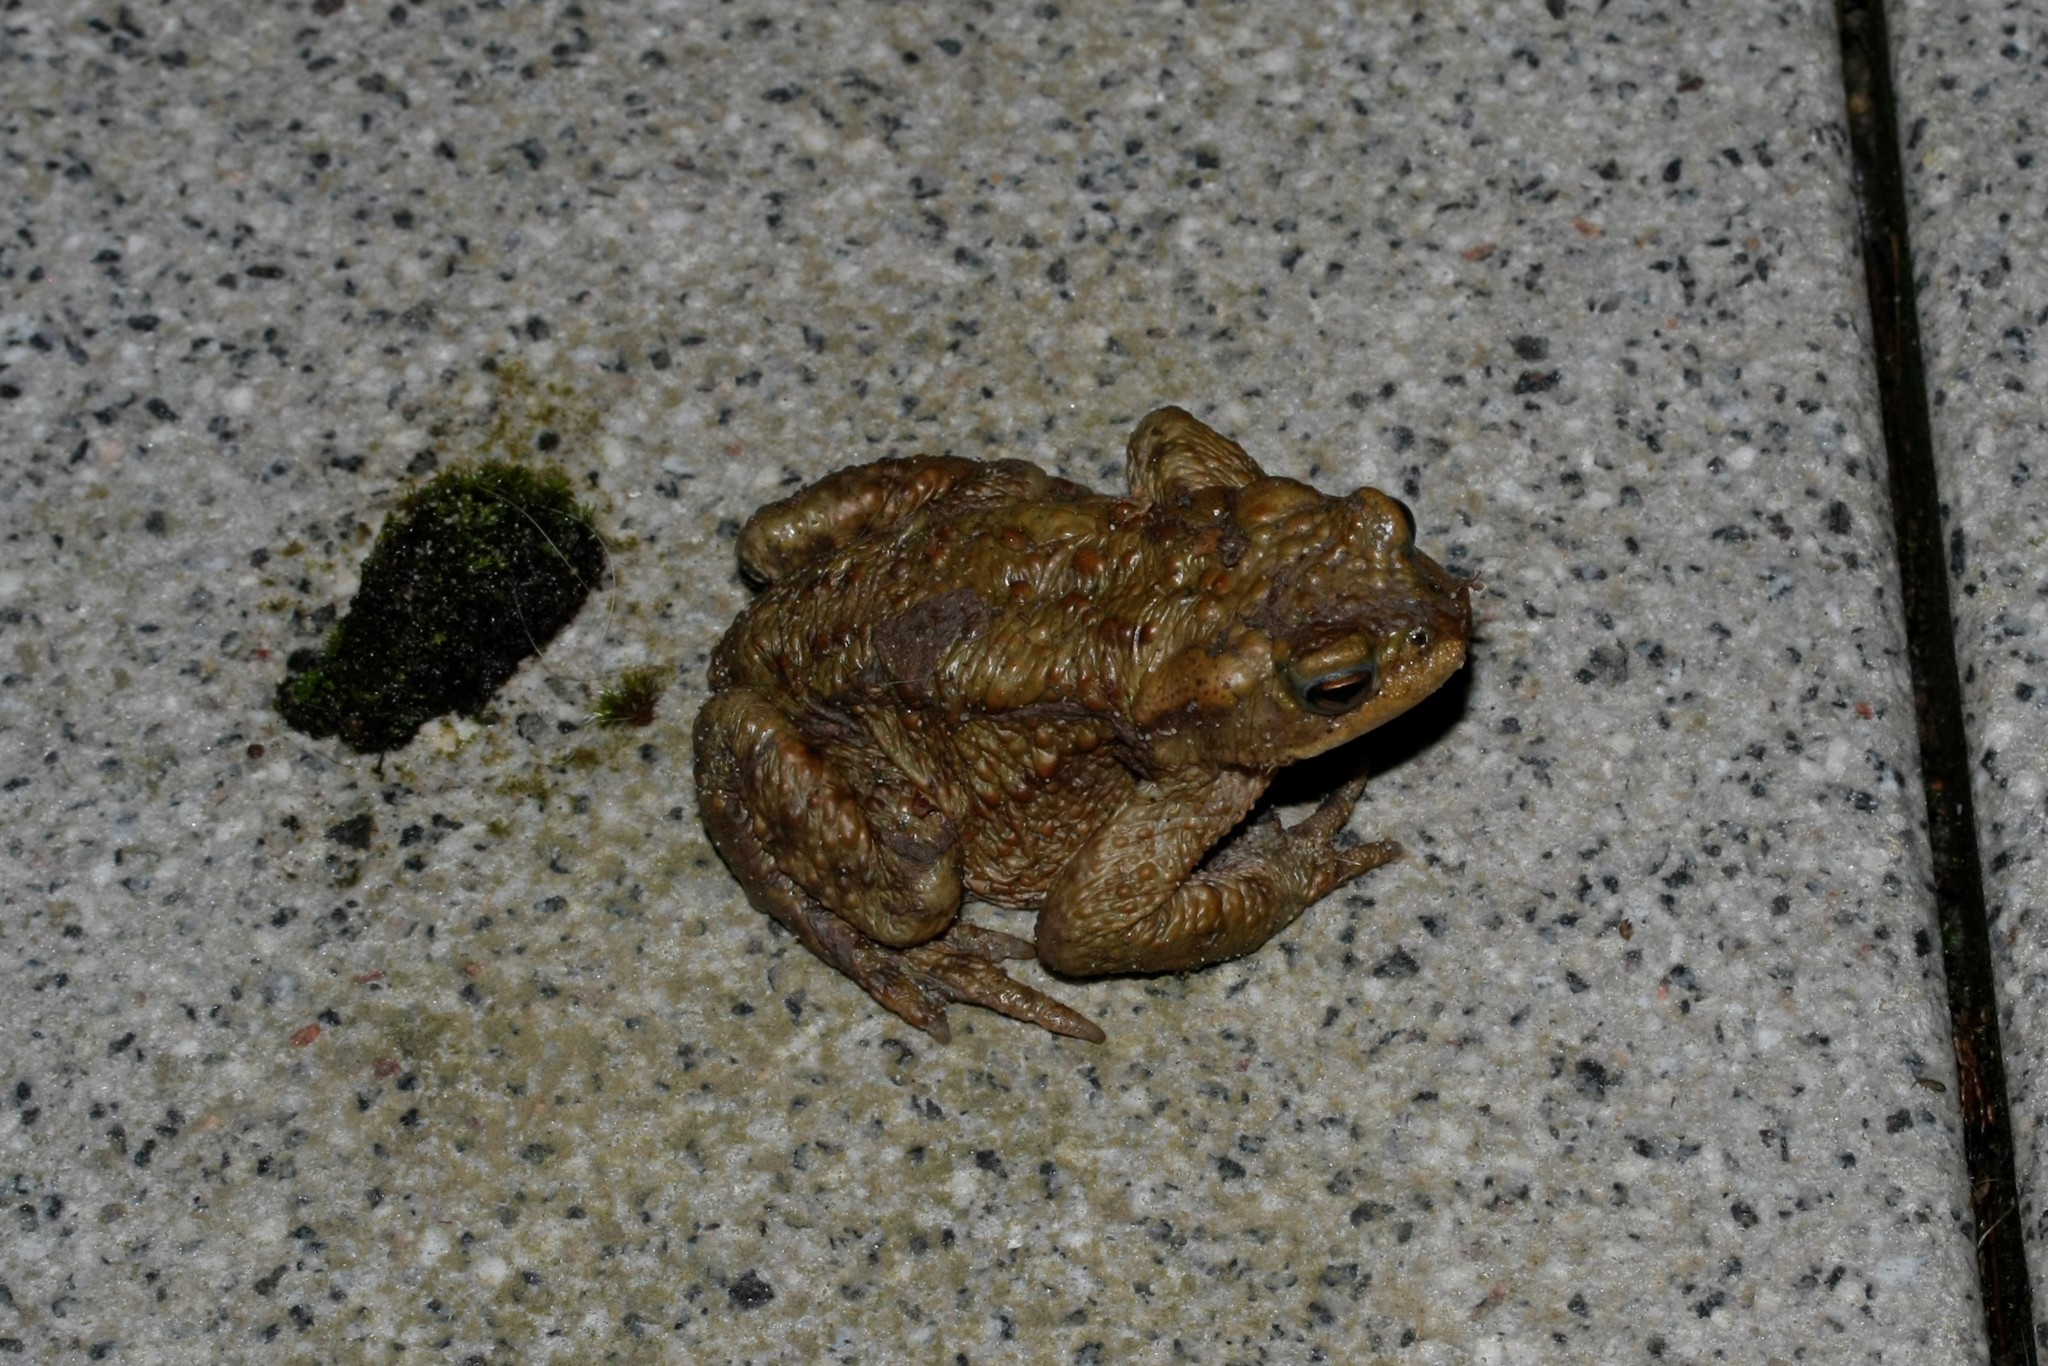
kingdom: Animalia
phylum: Chordata
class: Amphibia
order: Anura
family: Bufonidae
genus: Bufo
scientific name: Bufo bufo
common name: Common toad
